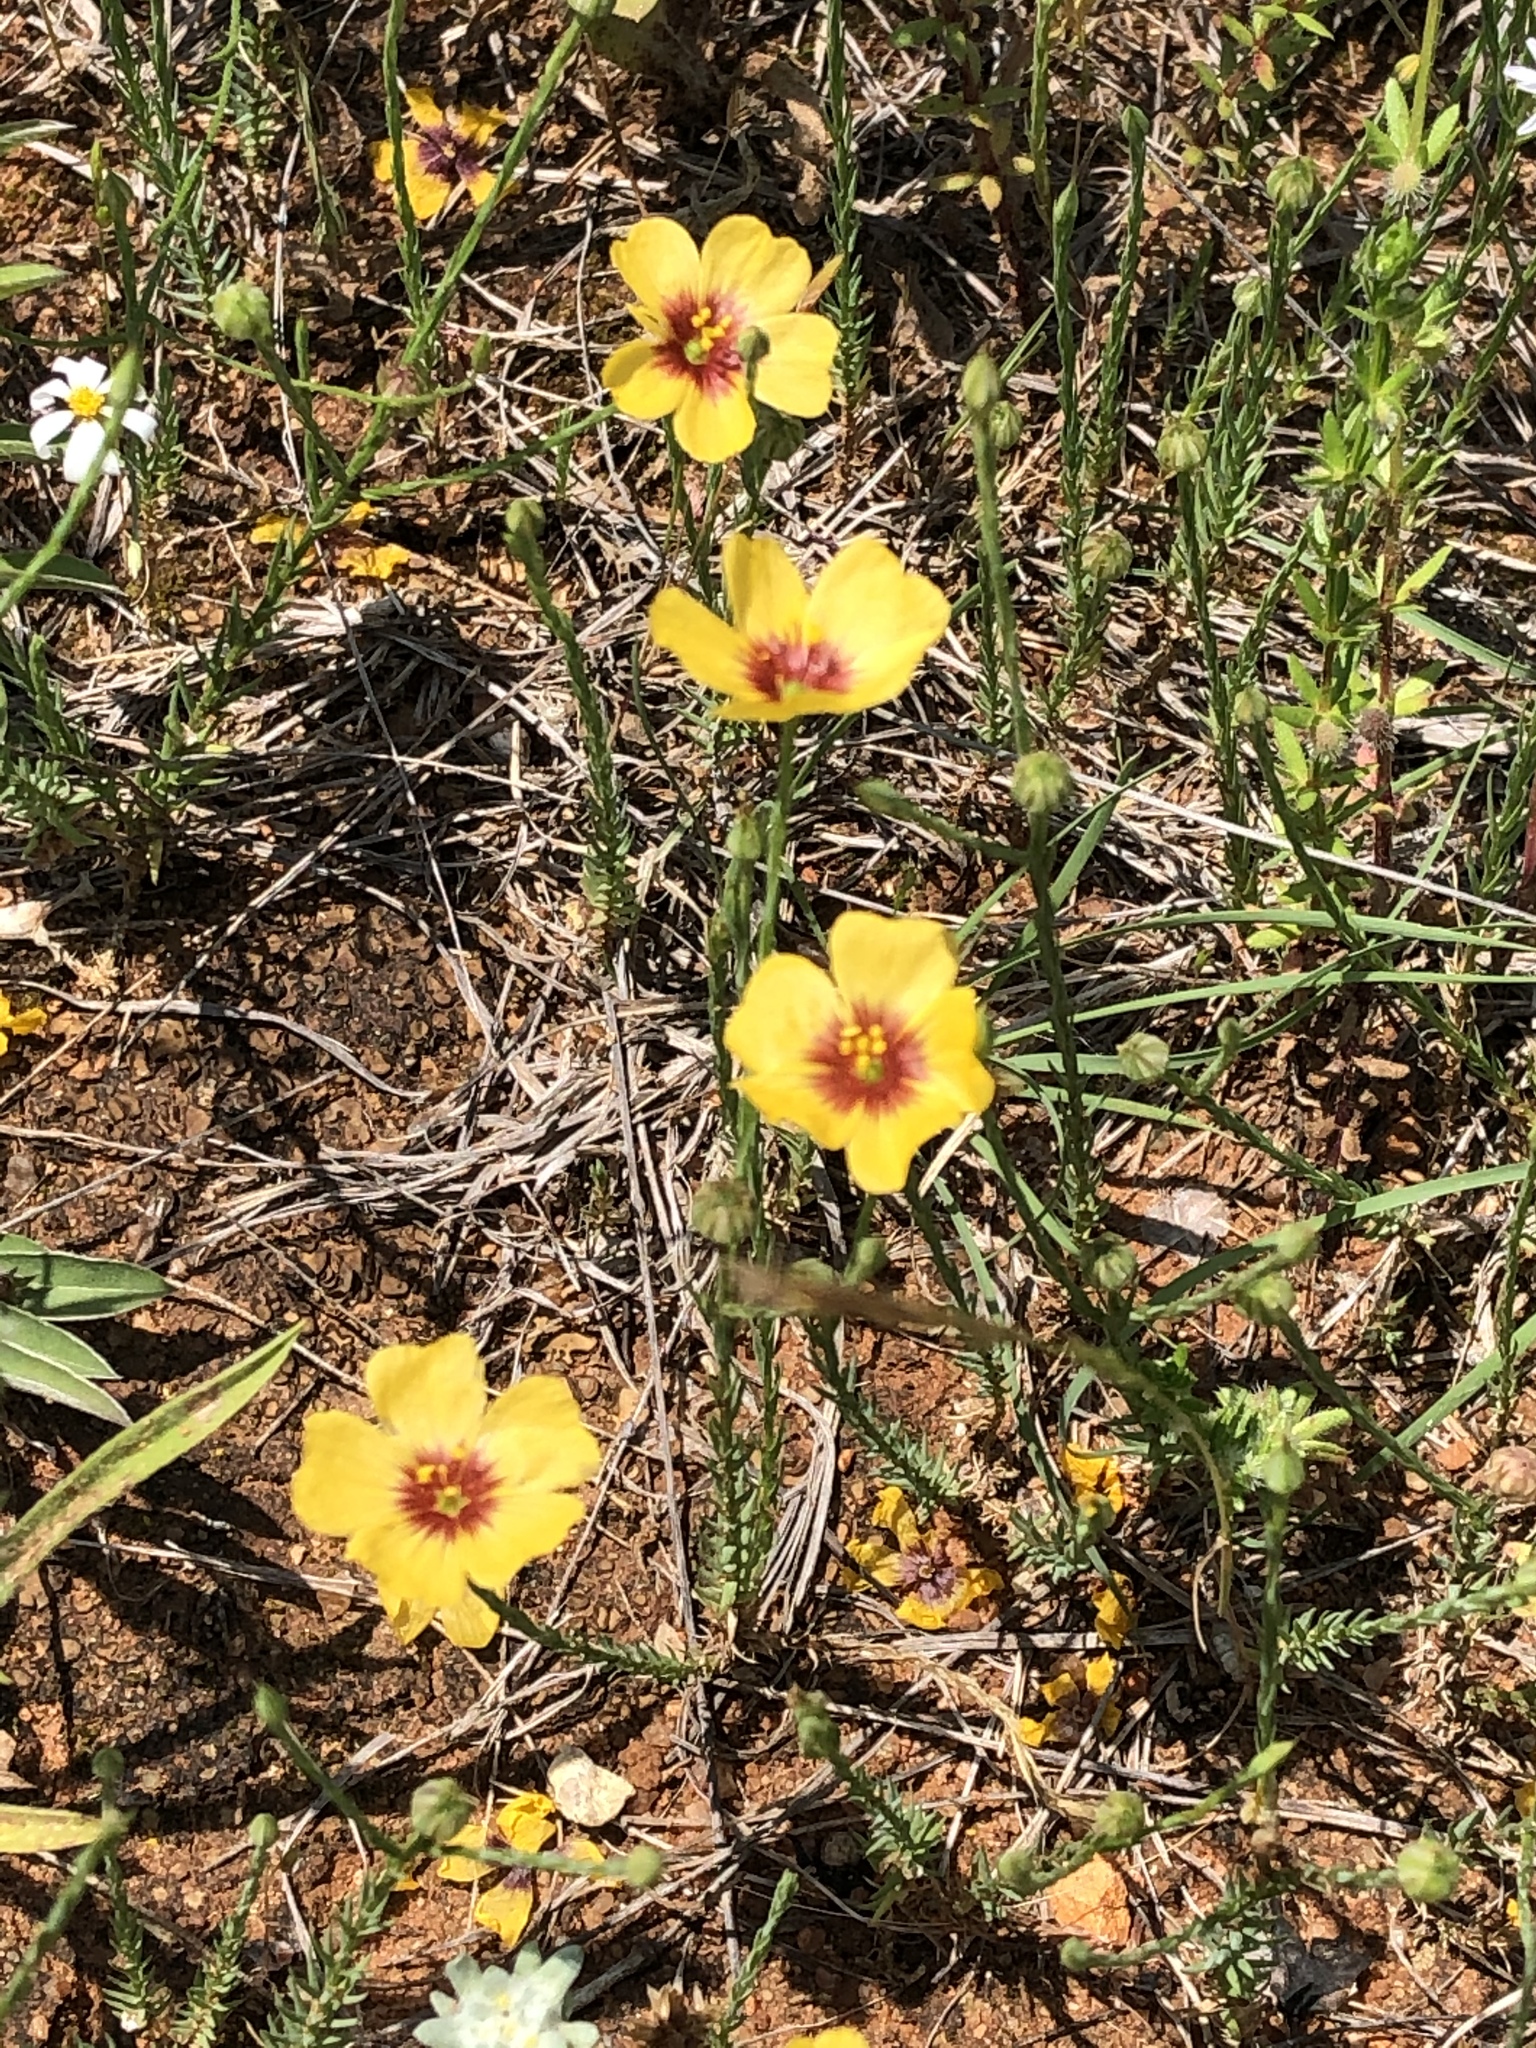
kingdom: Plantae
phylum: Tracheophyta
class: Magnoliopsida
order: Malpighiales
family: Linaceae
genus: Linum
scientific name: Linum rigidum
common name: Stiff-stem flax
